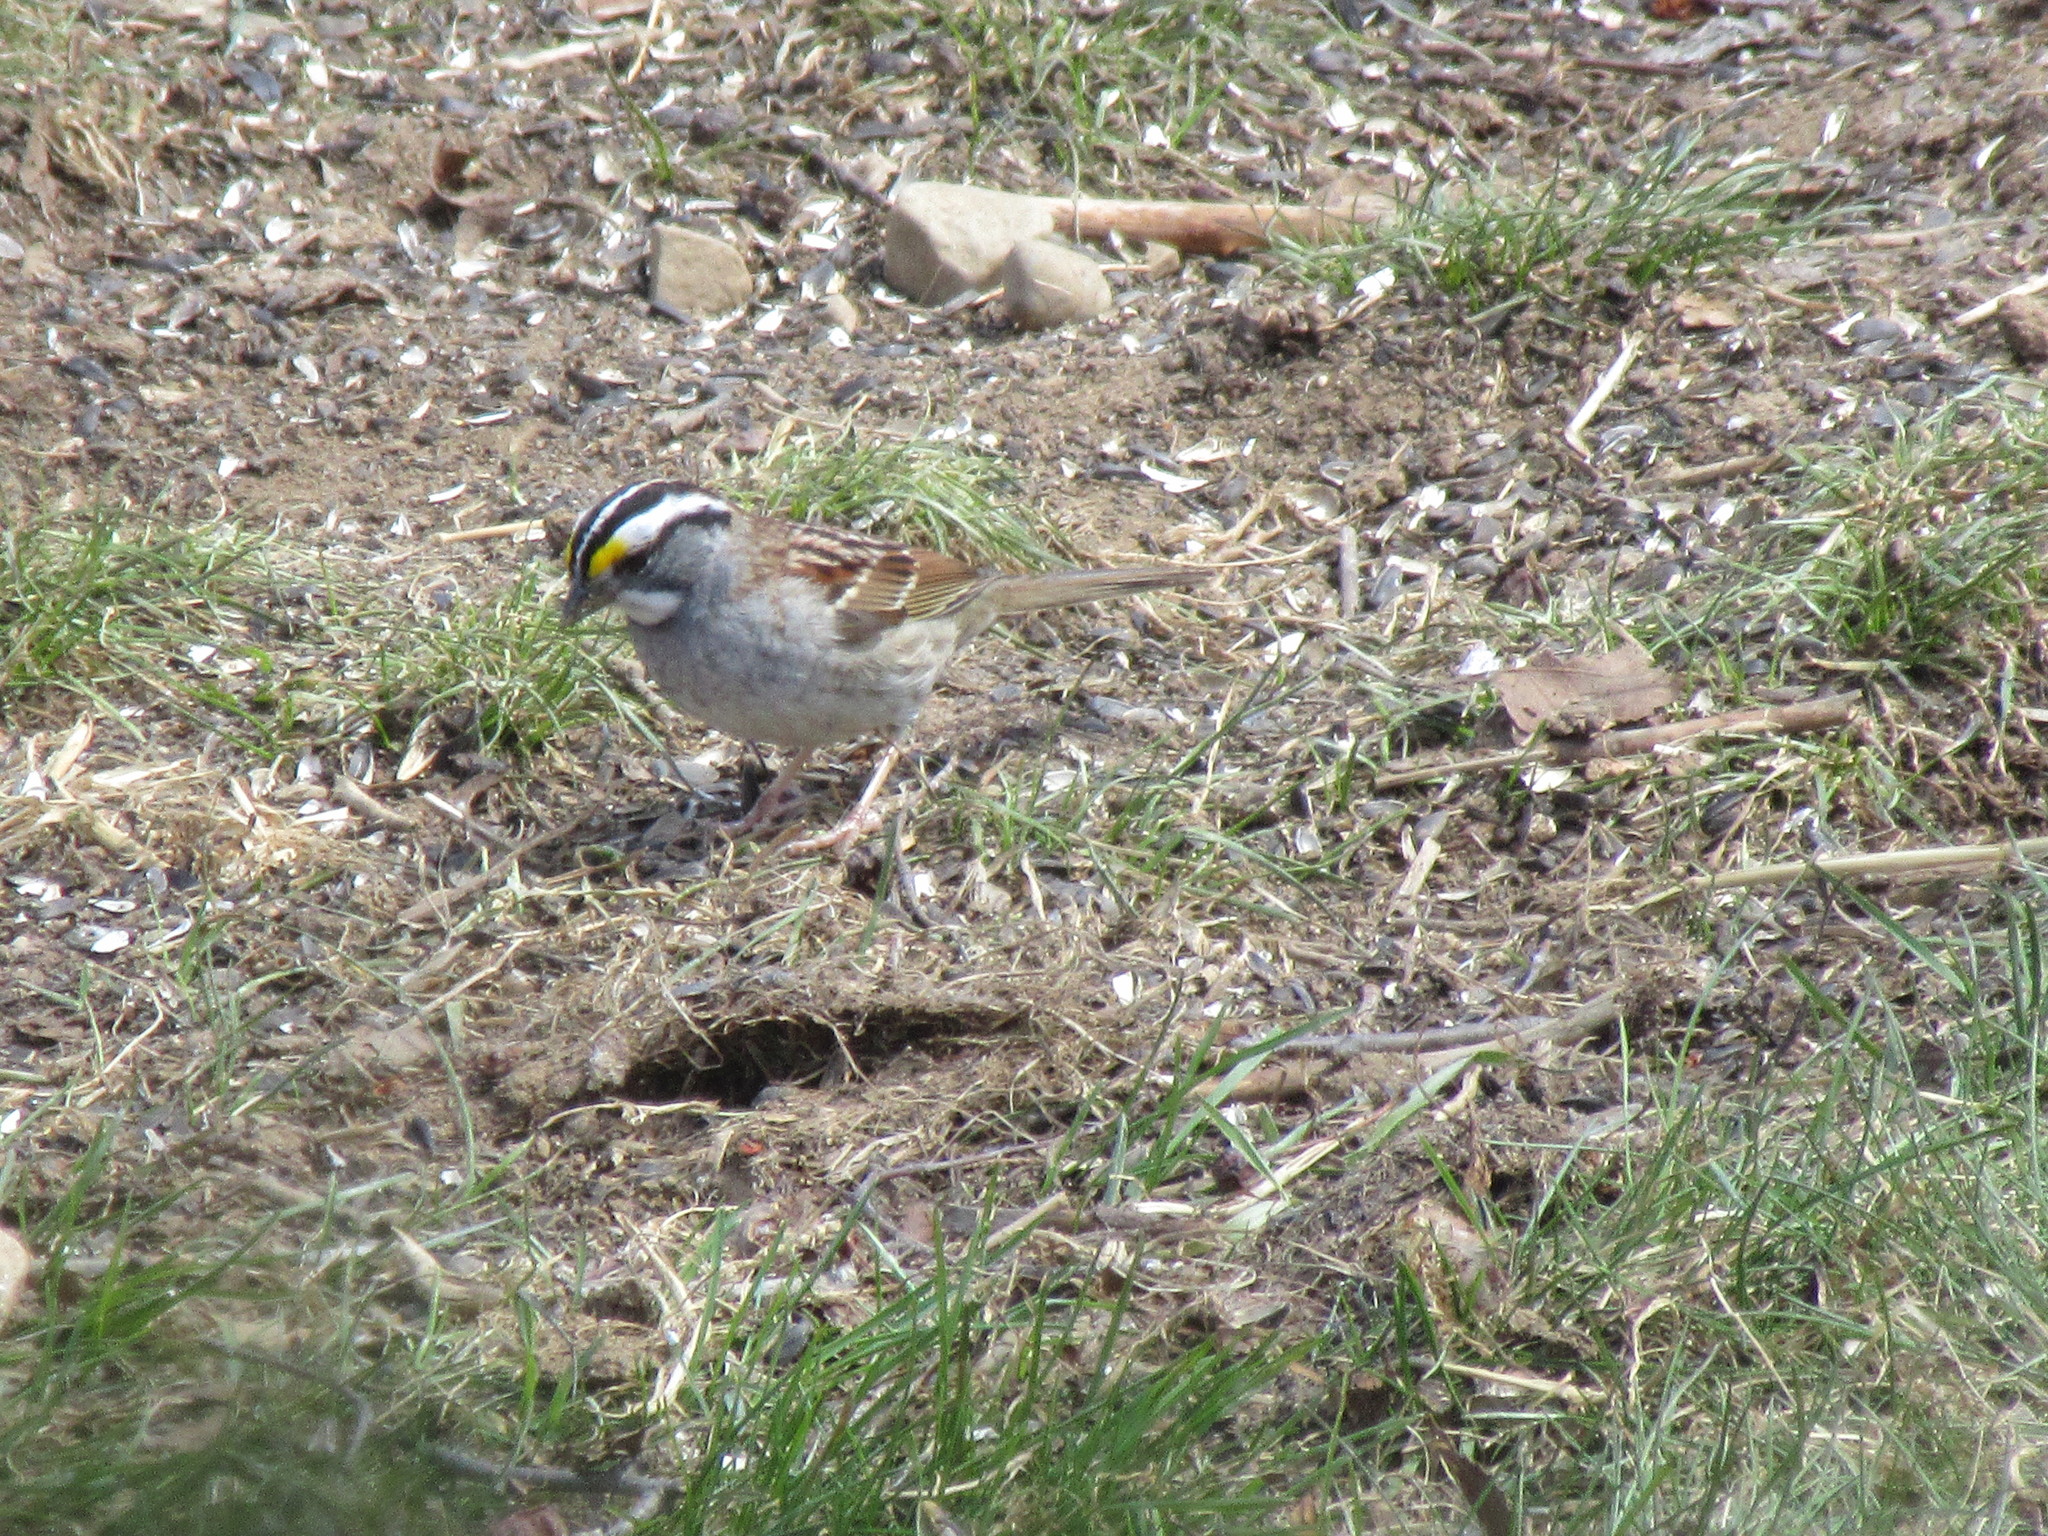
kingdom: Animalia
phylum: Chordata
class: Aves
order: Passeriformes
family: Passerellidae
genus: Zonotrichia
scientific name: Zonotrichia albicollis
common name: White-throated sparrow
